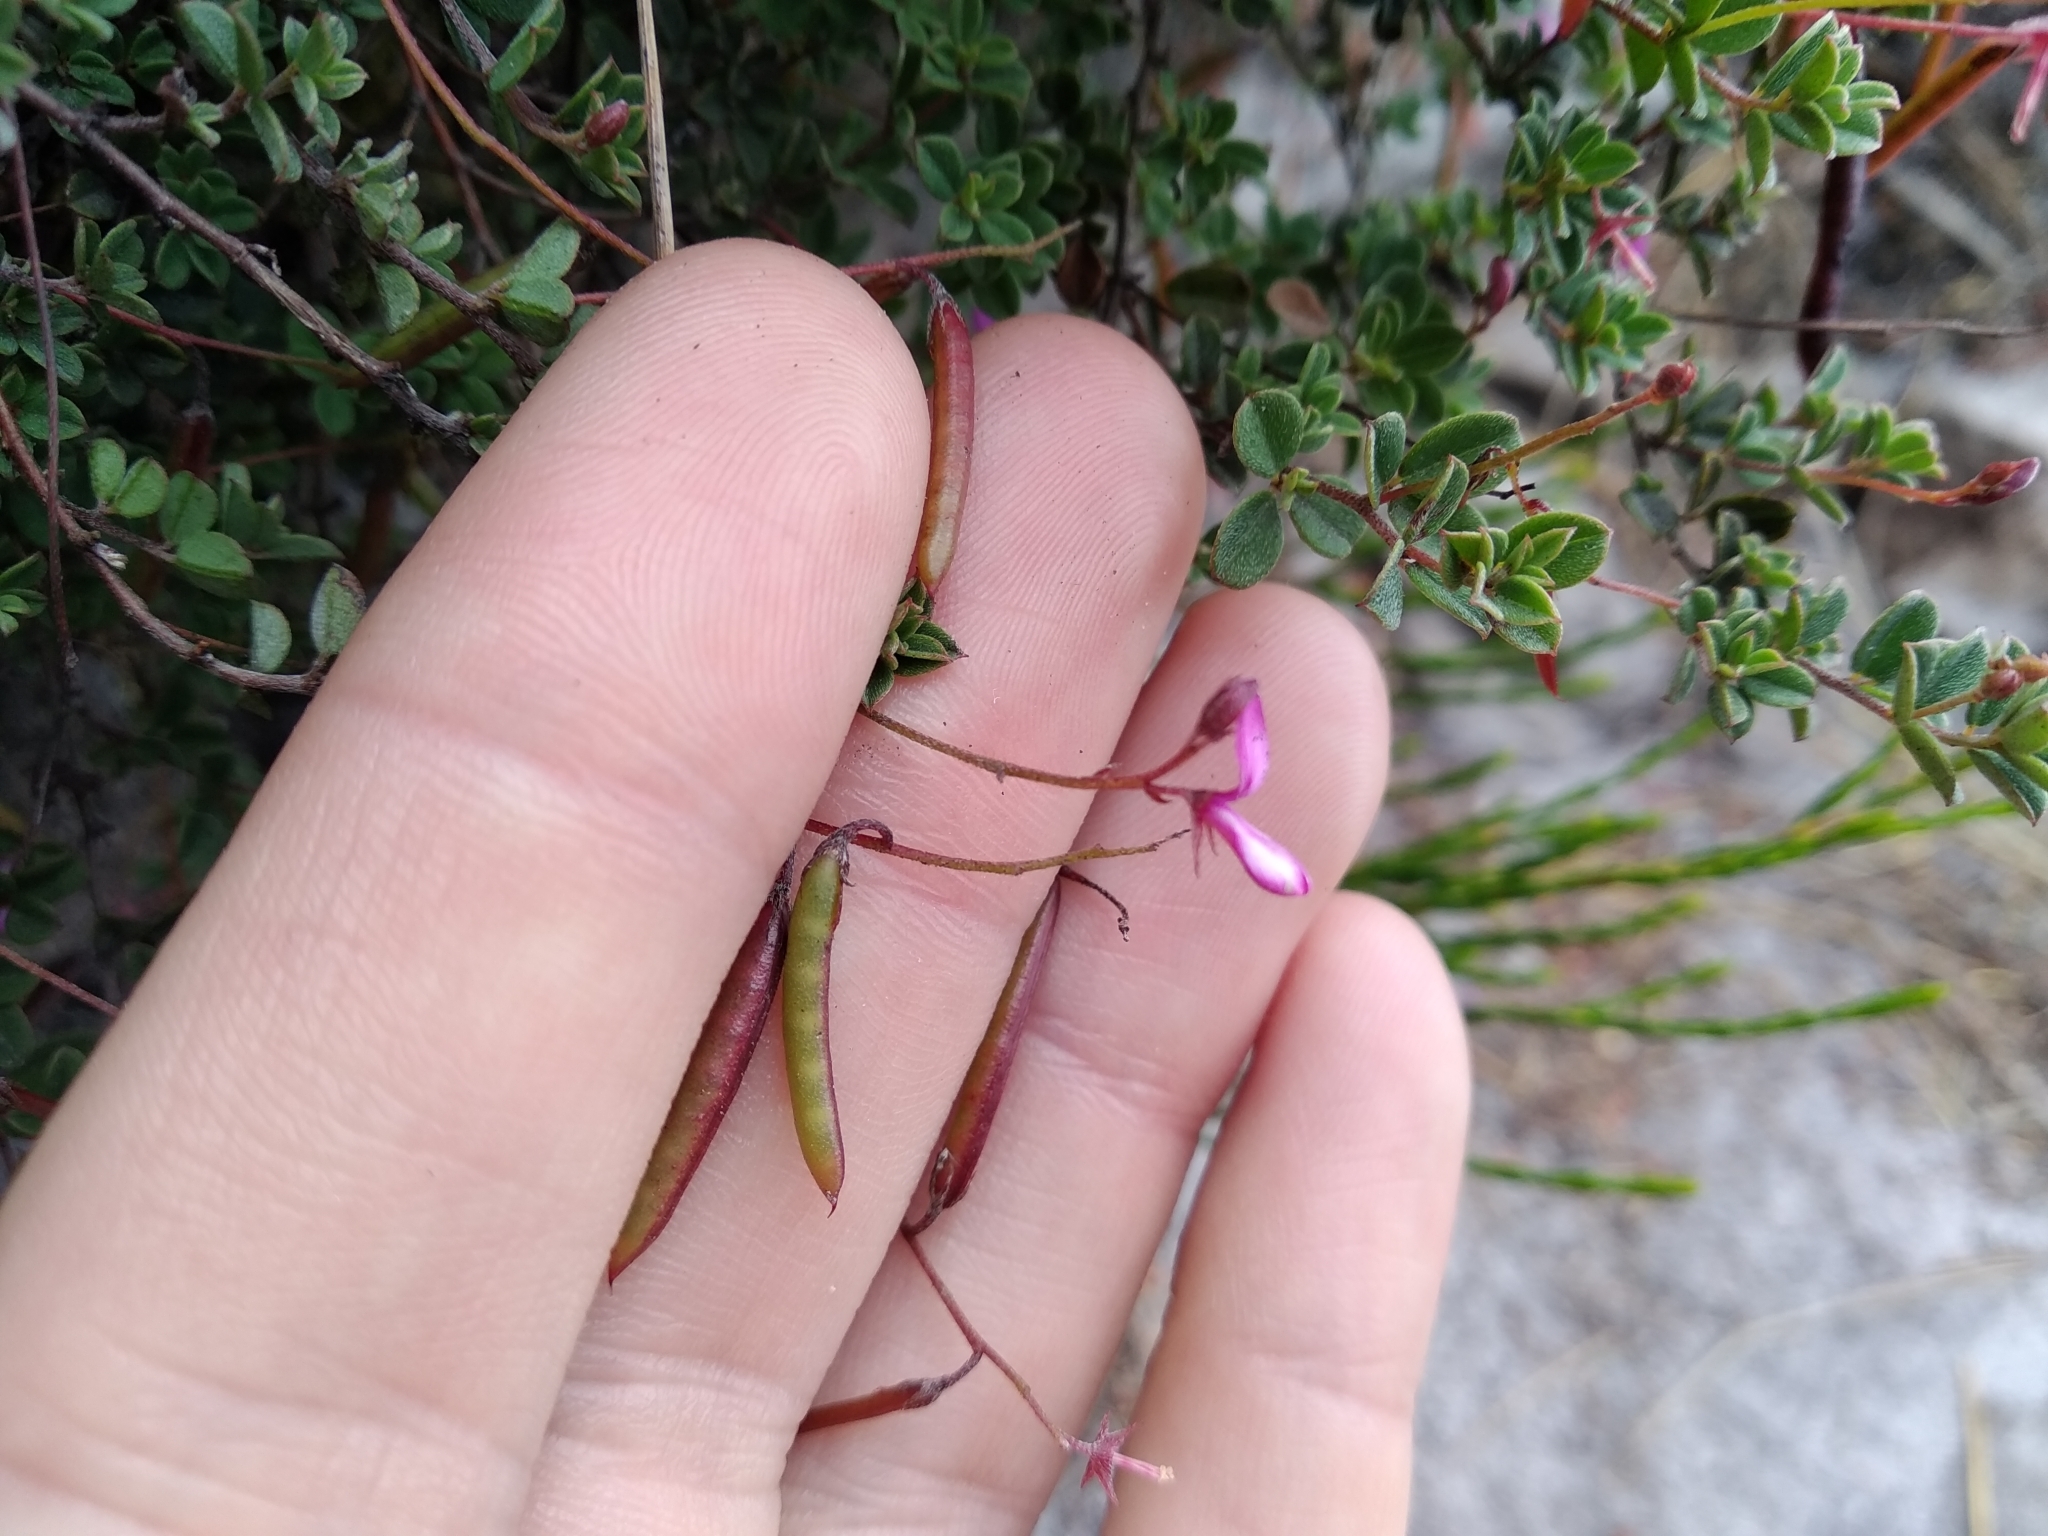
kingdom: Plantae
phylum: Tracheophyta
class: Magnoliopsida
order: Fabales
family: Fabaceae
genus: Indigofera
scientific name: Indigofera sarmentosa
